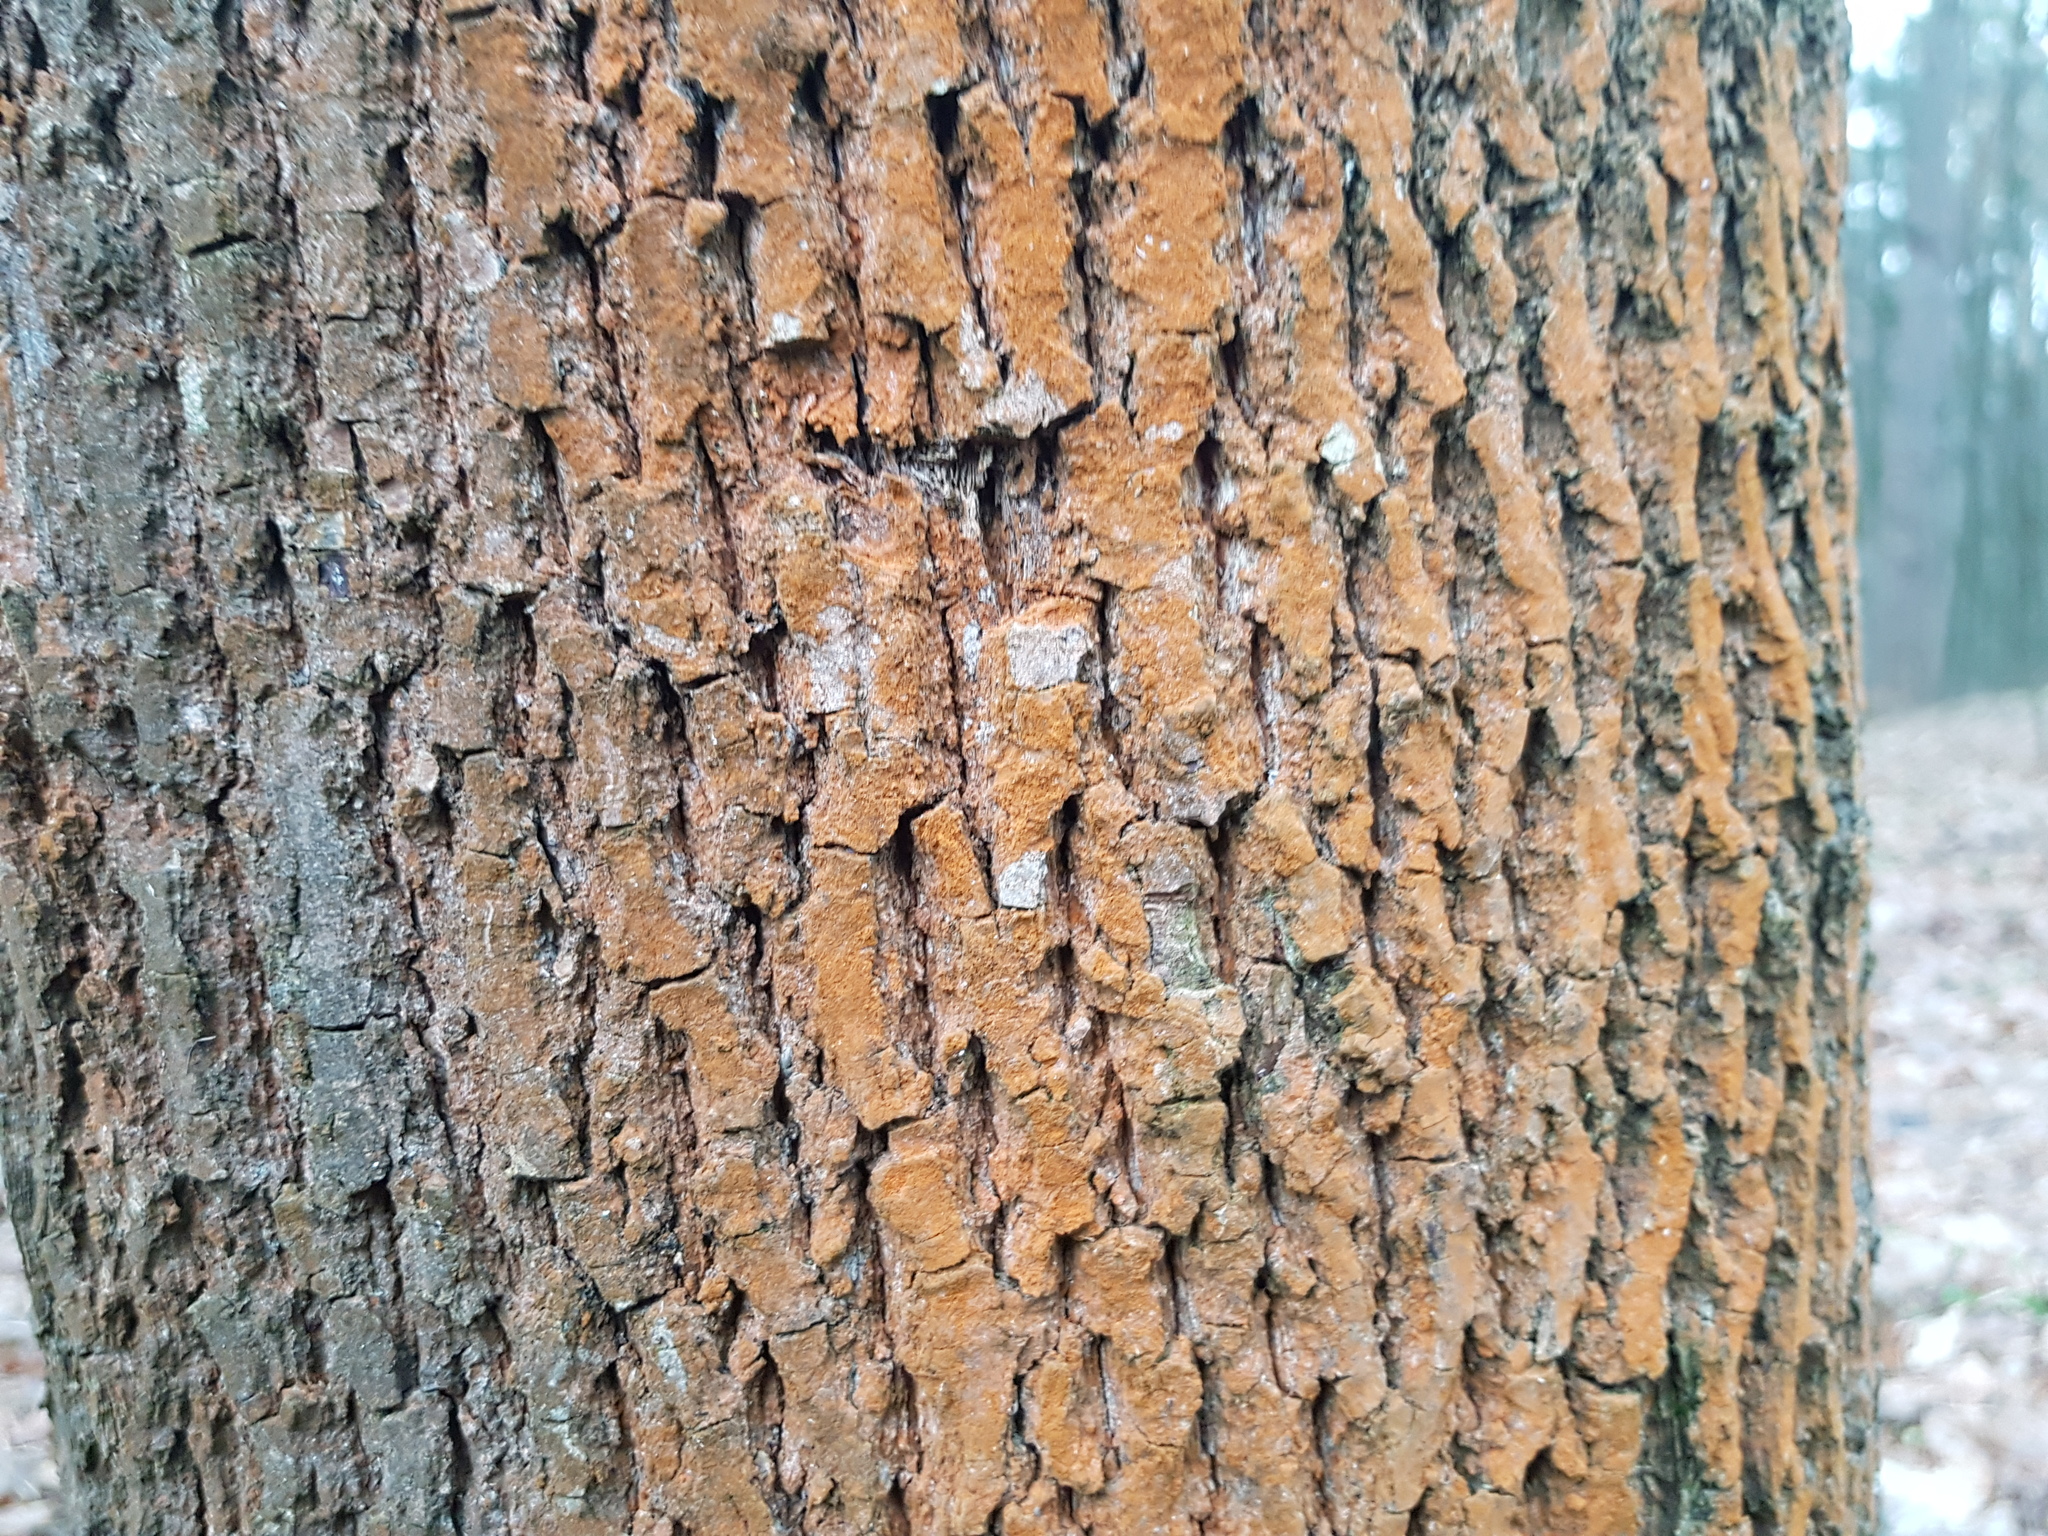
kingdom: Plantae
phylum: Chlorophyta
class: Ulvophyceae
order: Trentepohliales
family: Trentepohliaceae
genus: Trentepohlia
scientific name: Trentepohlia
